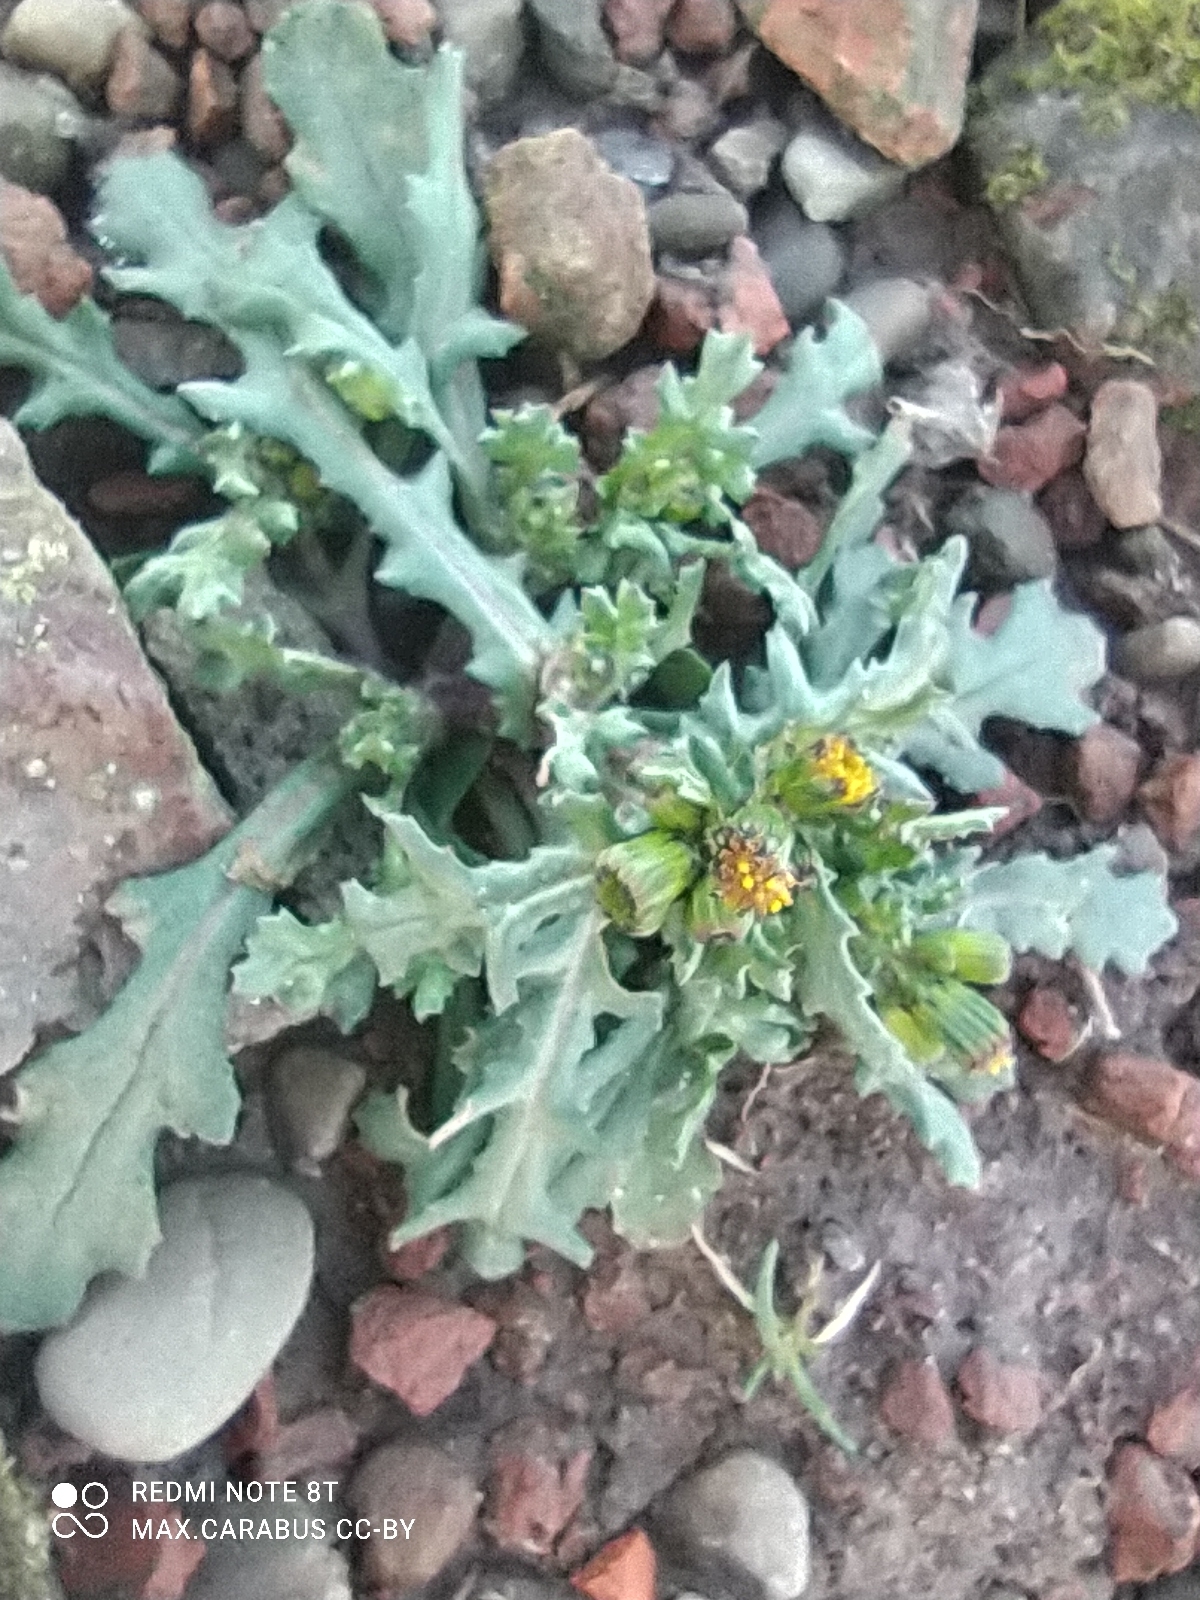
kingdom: Plantae
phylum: Tracheophyta
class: Magnoliopsida
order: Asterales
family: Asteraceae
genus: Senecio
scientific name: Senecio vulgaris
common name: Old-man-in-the-spring
